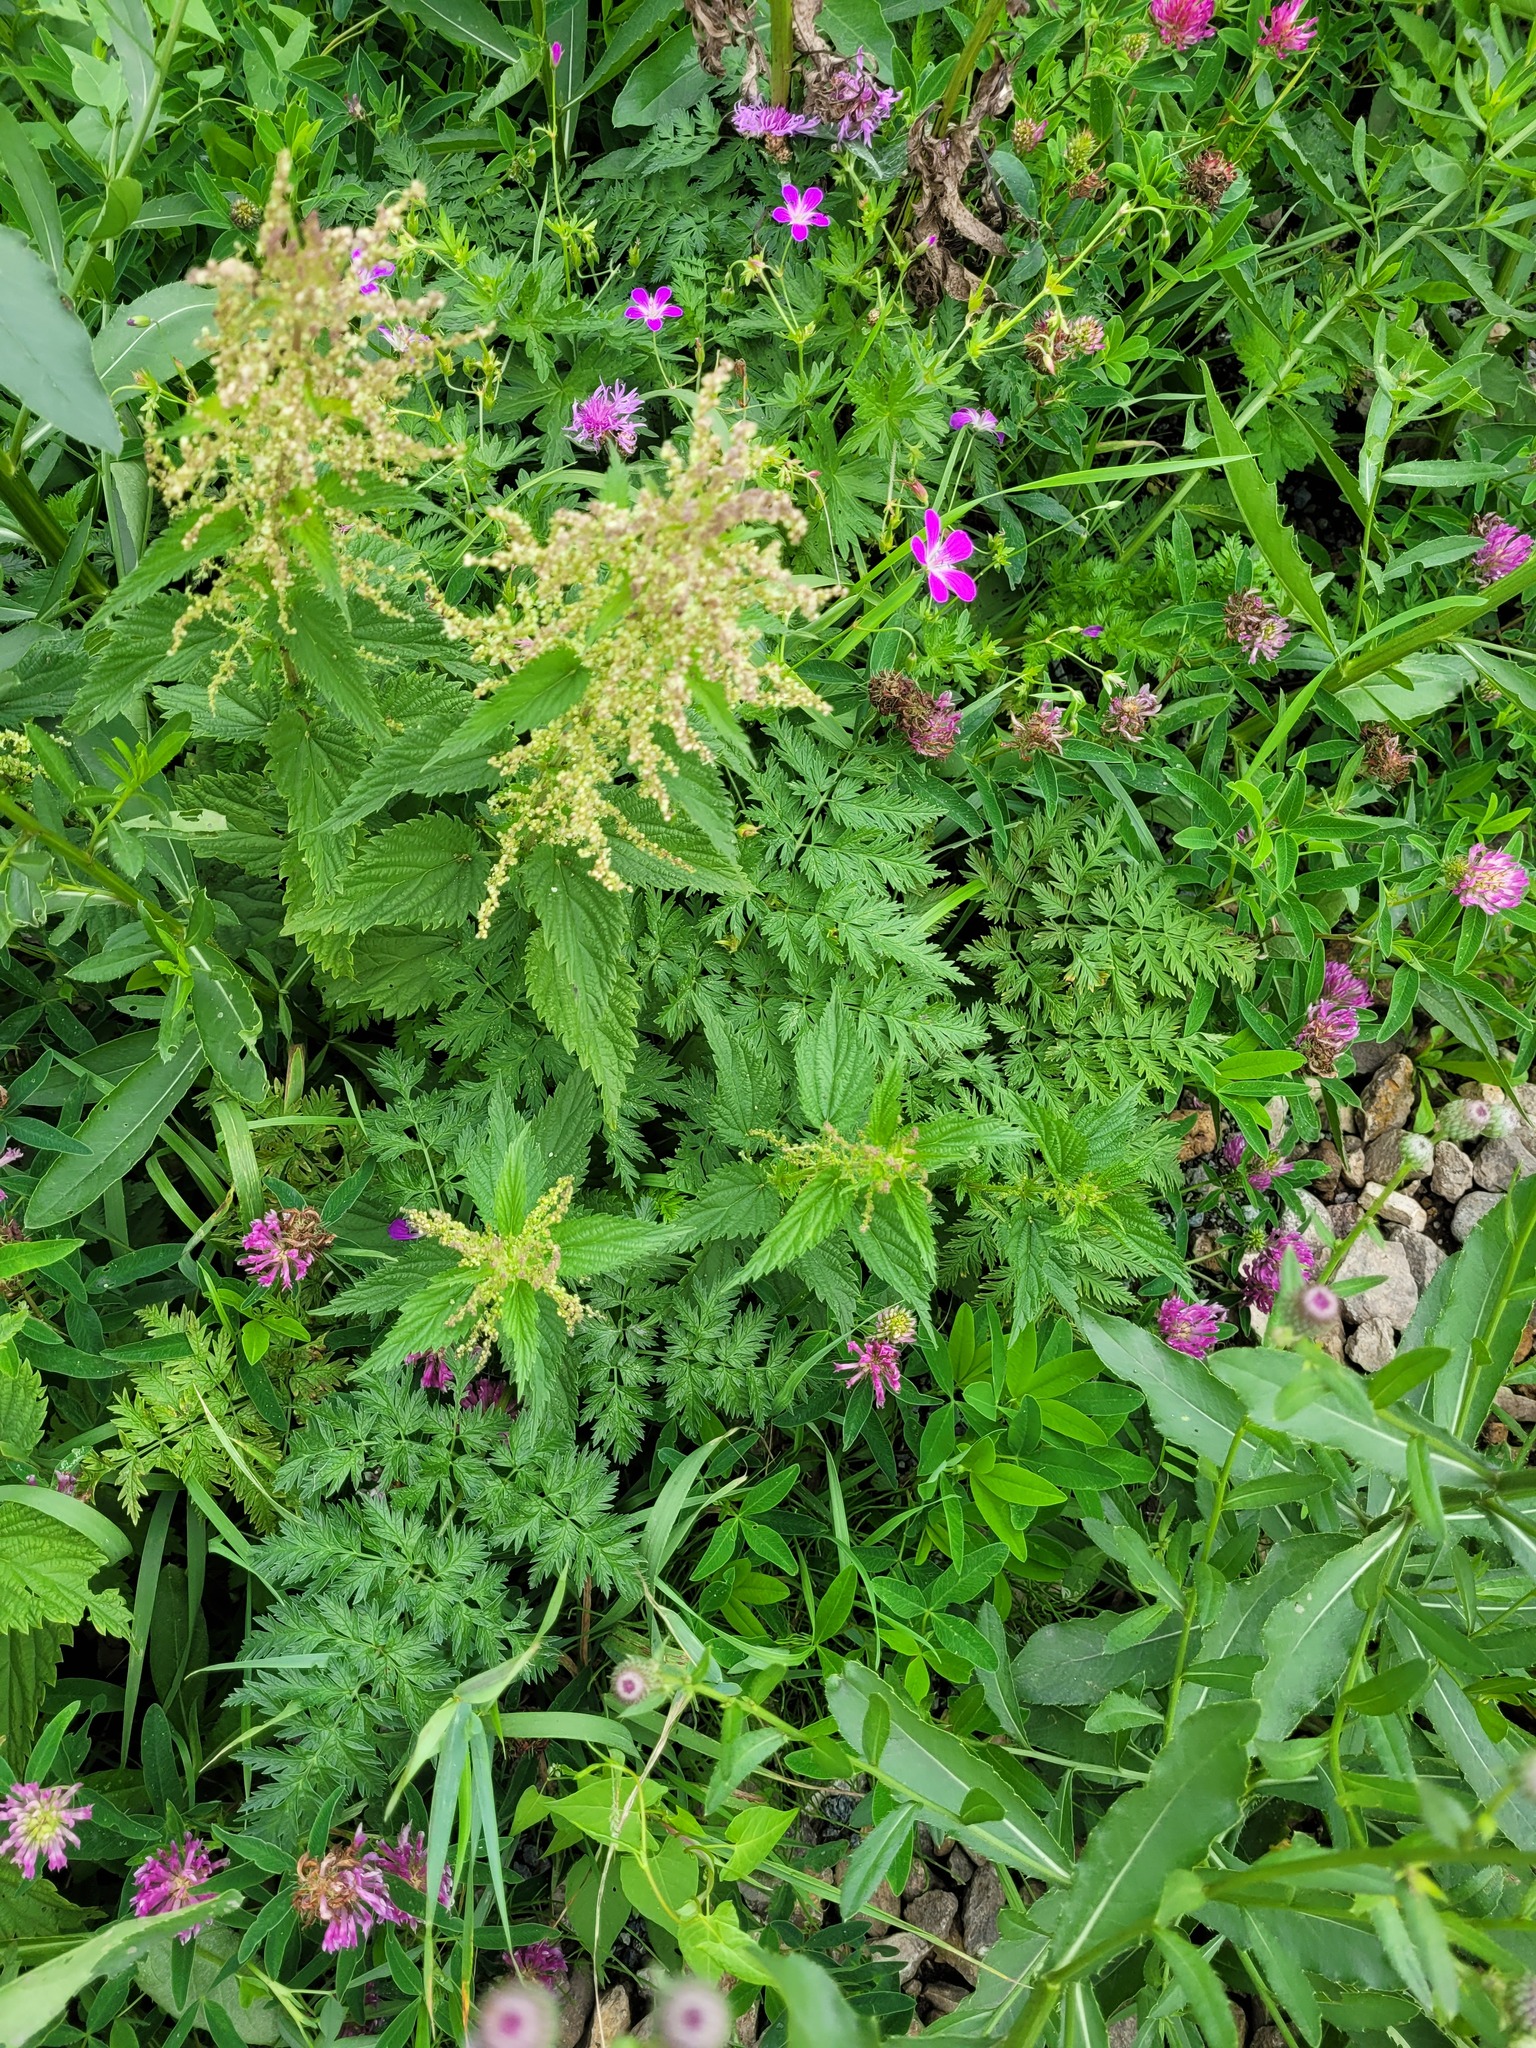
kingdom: Plantae
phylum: Tracheophyta
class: Magnoliopsida
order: Apiales
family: Apiaceae
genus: Anthriscus
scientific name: Anthriscus sylvestris
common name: Cow parsley
